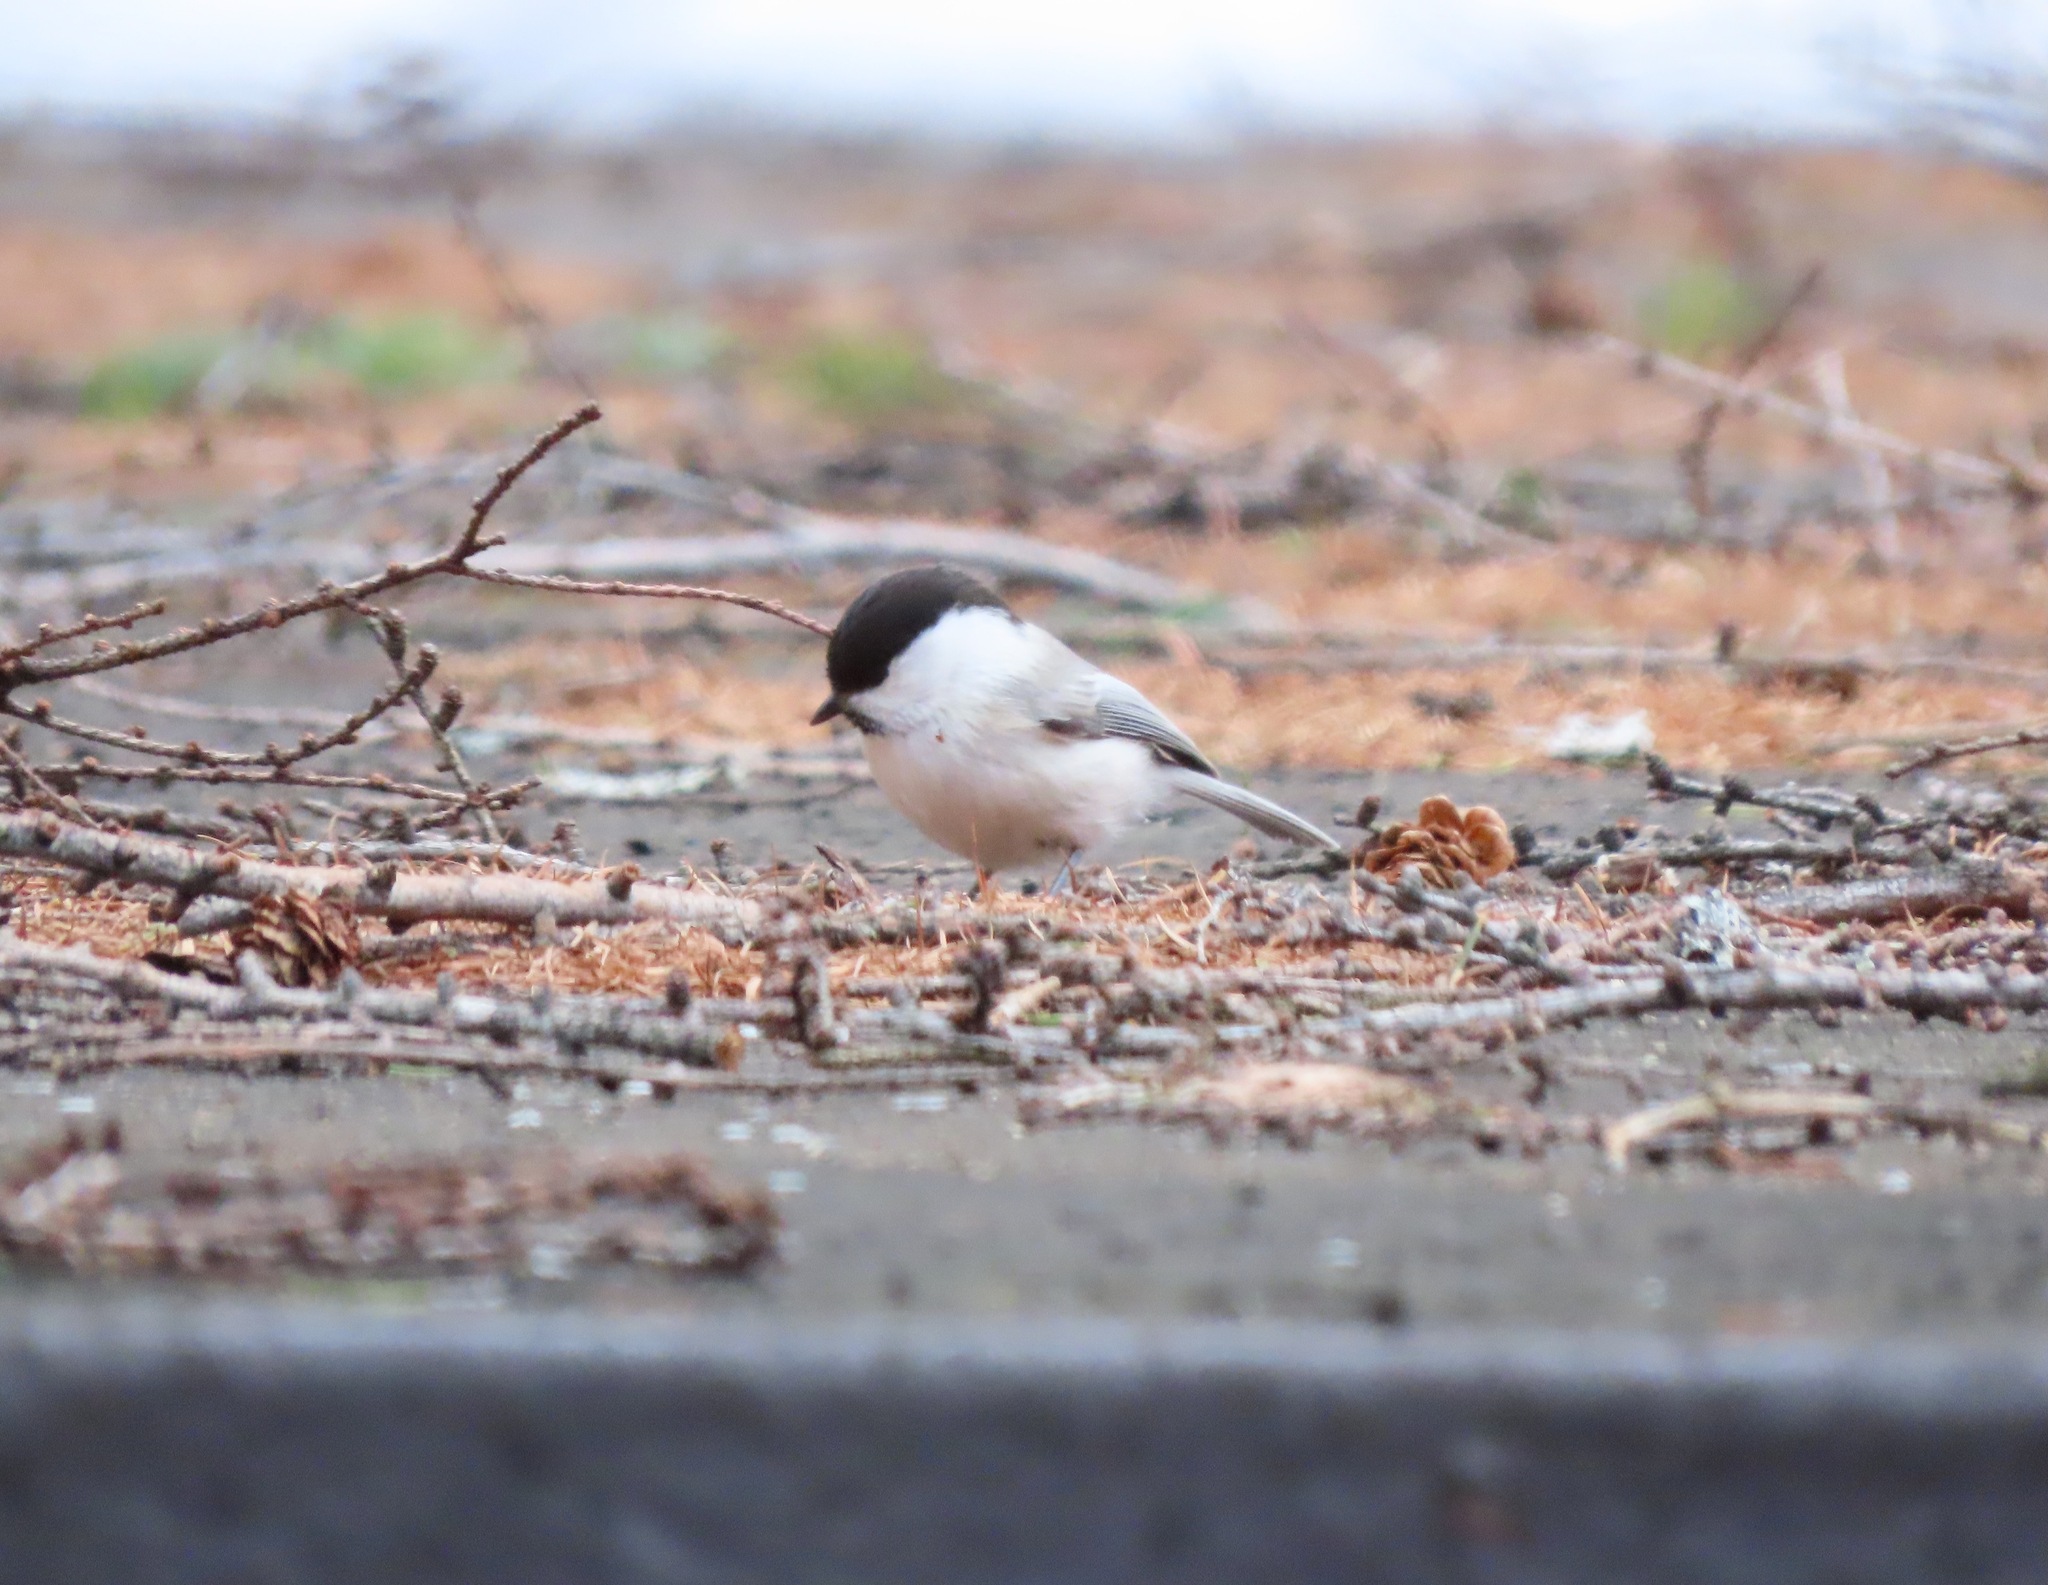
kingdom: Animalia
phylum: Chordata
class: Aves
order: Passeriformes
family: Paridae
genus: Poecile
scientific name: Poecile montanus
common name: Willow tit
